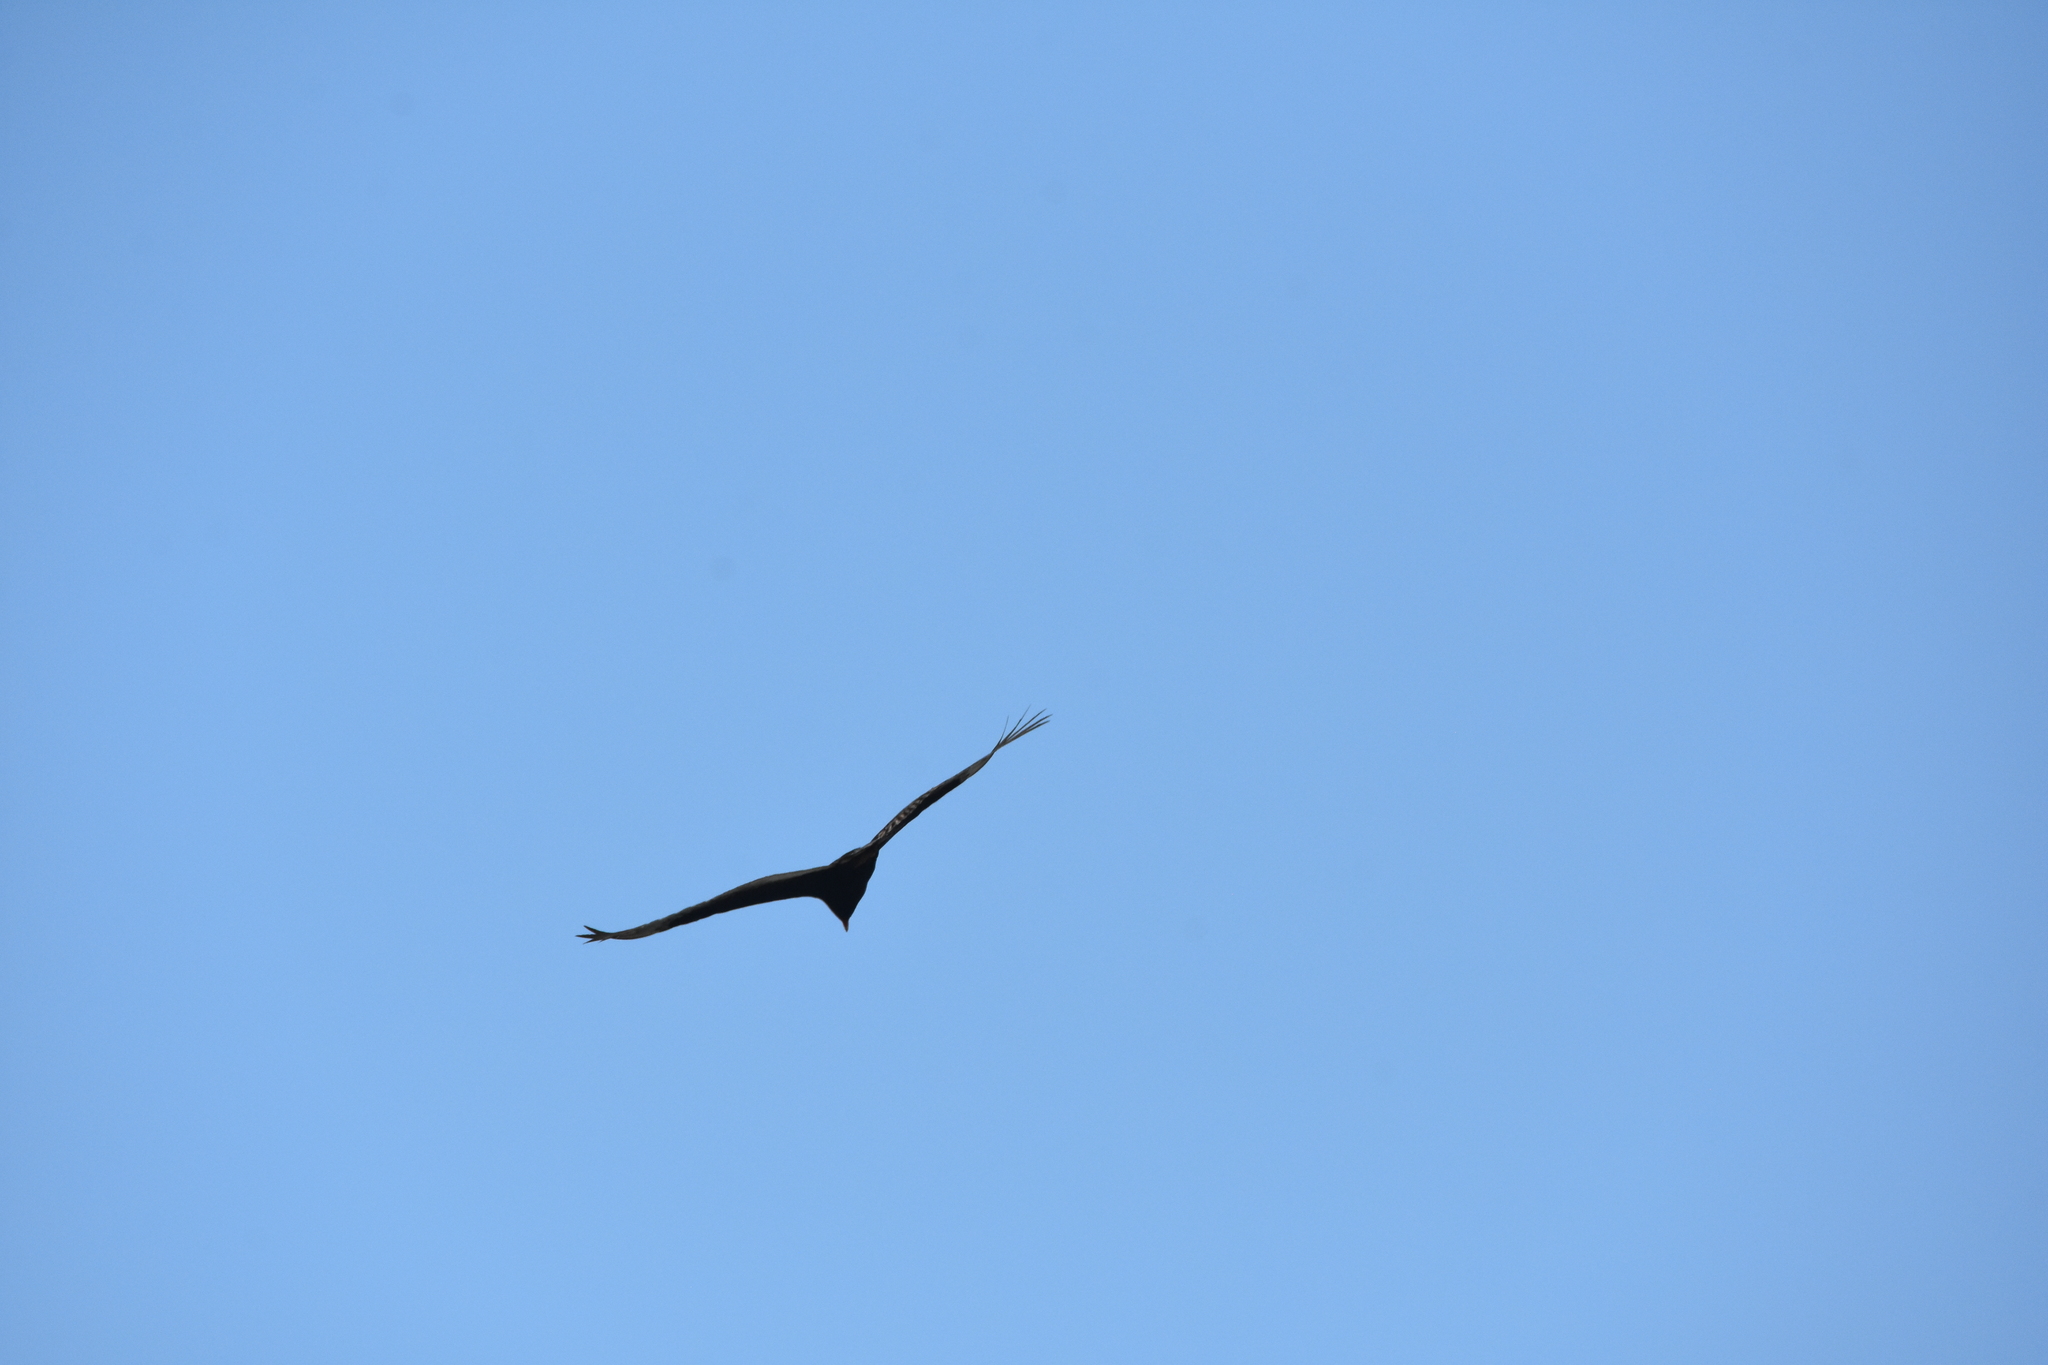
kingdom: Animalia
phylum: Chordata
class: Aves
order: Accipitriformes
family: Cathartidae
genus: Cathartes
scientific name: Cathartes aura
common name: Turkey vulture
